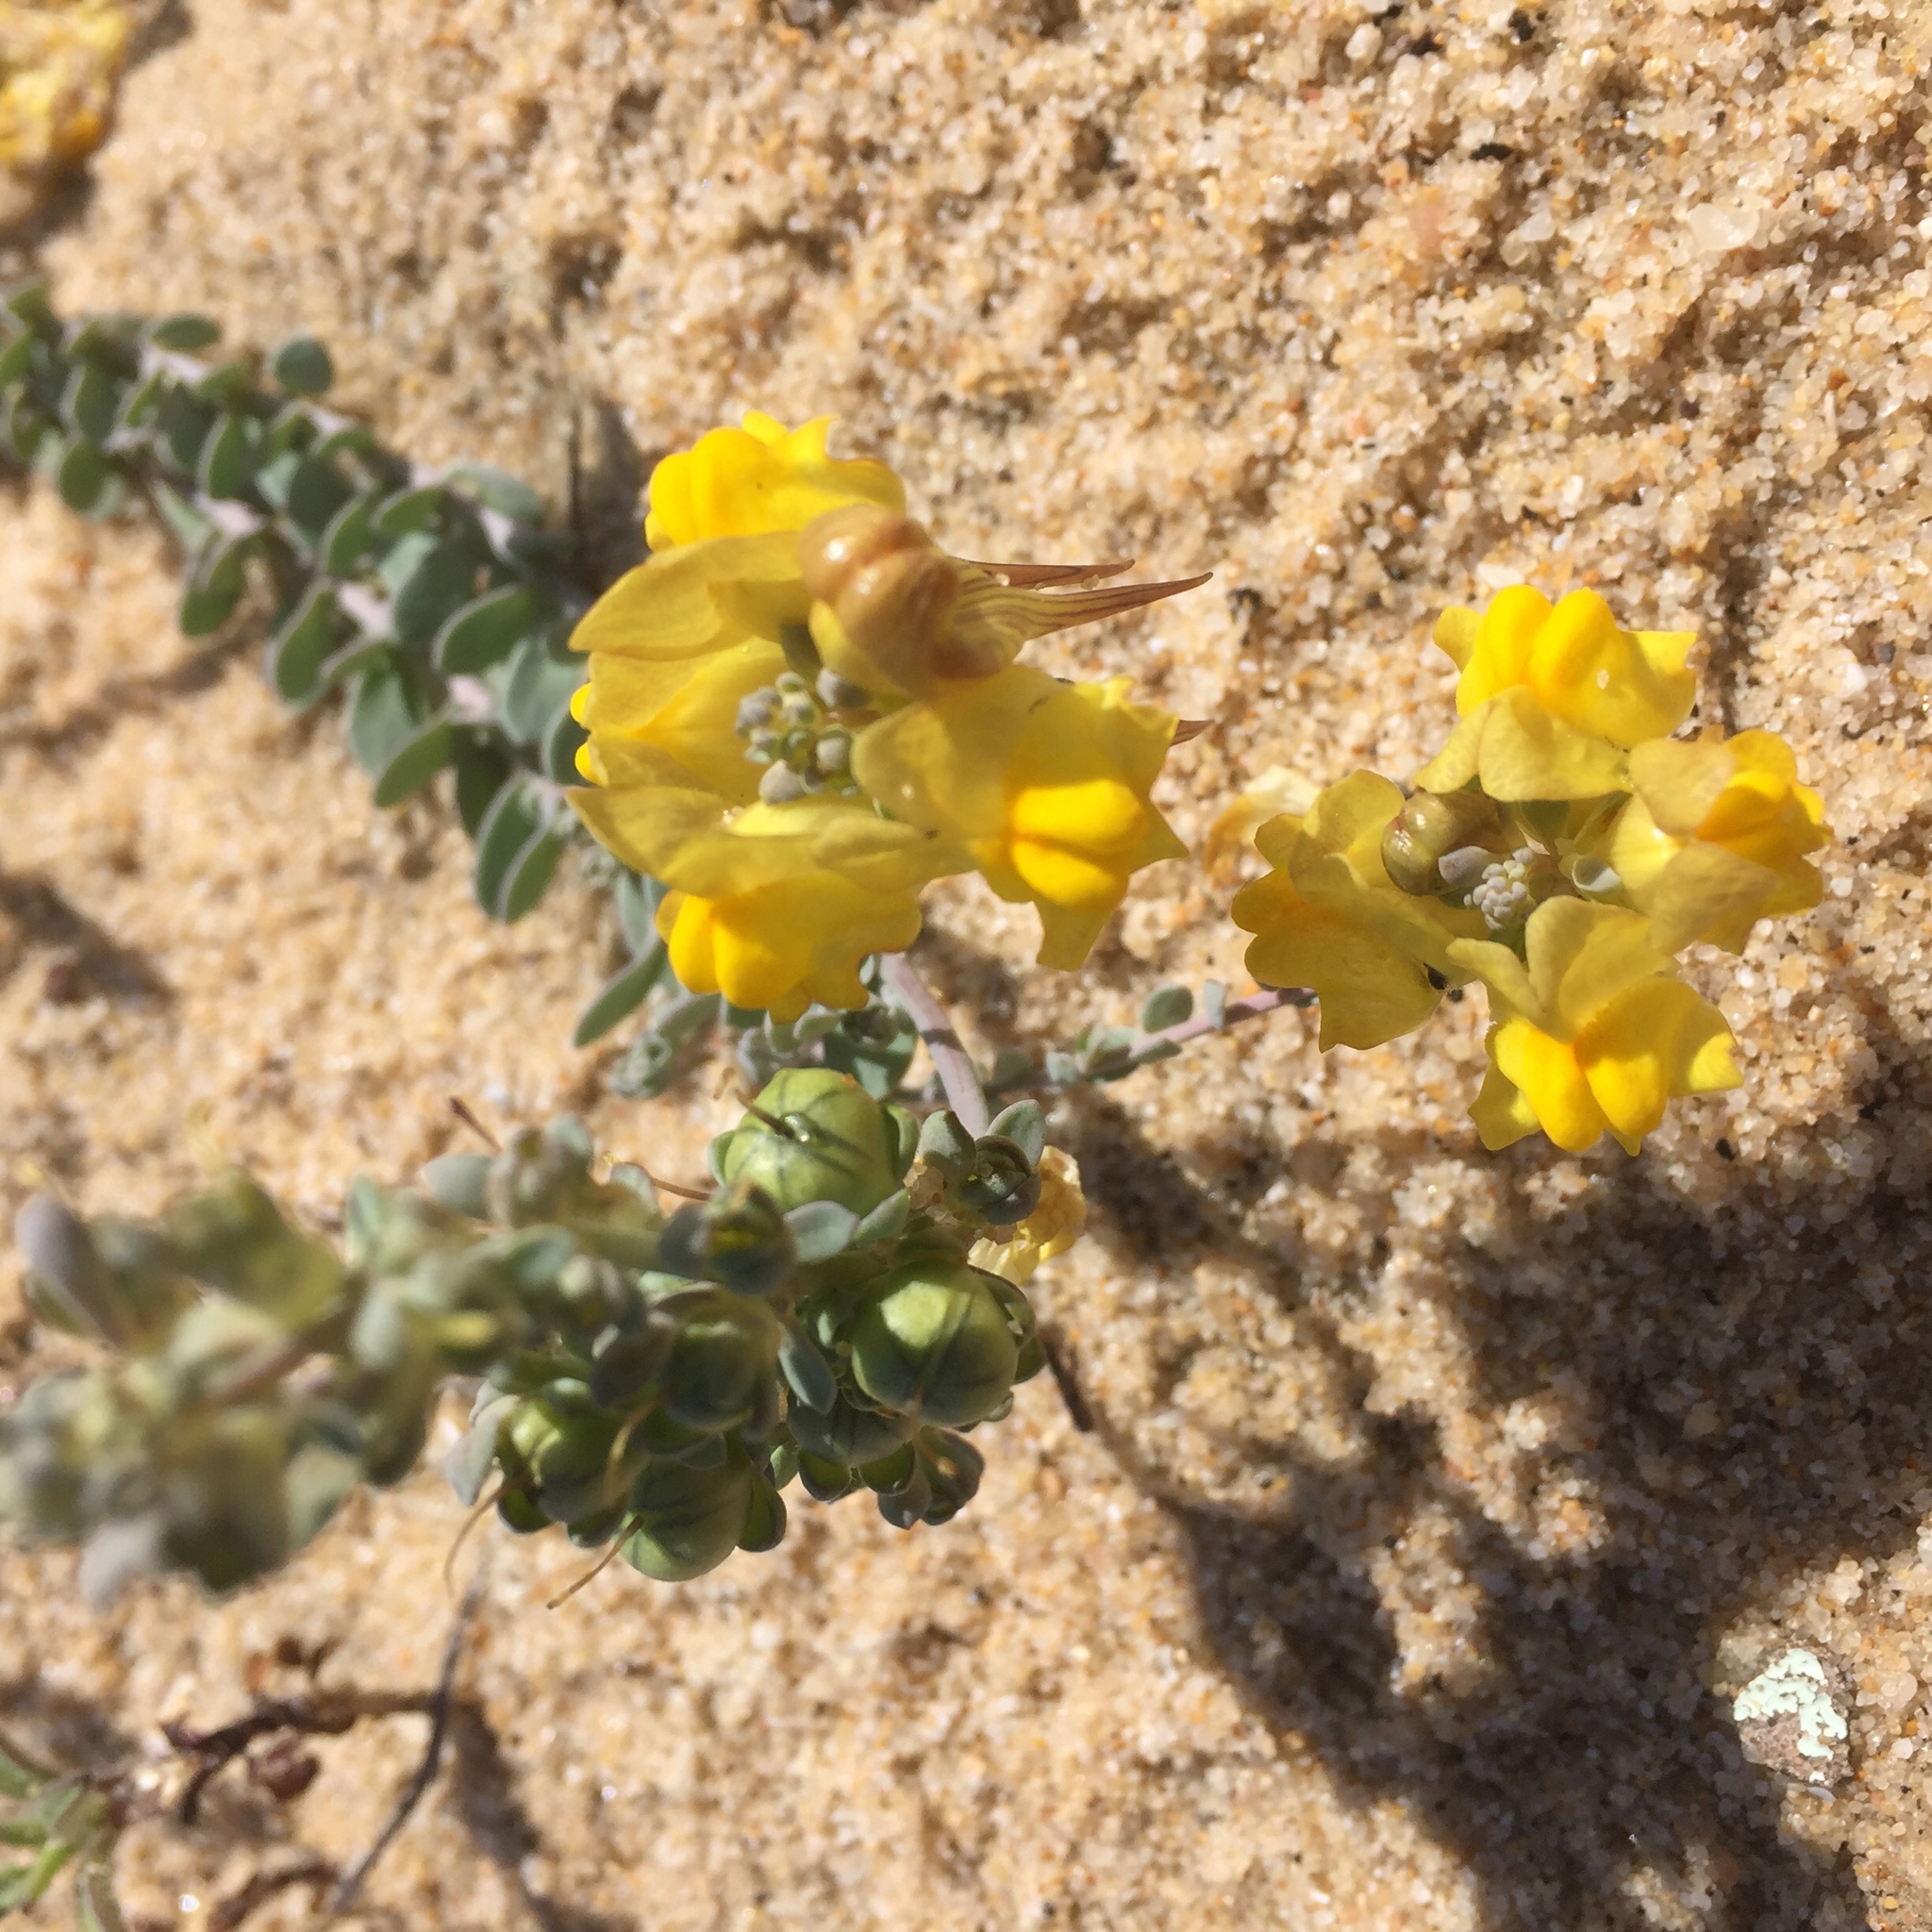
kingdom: Plantae
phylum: Tracheophyta
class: Magnoliopsida
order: Lamiales
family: Plantaginaceae
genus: Linaria
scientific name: Linaria polygalifolia
